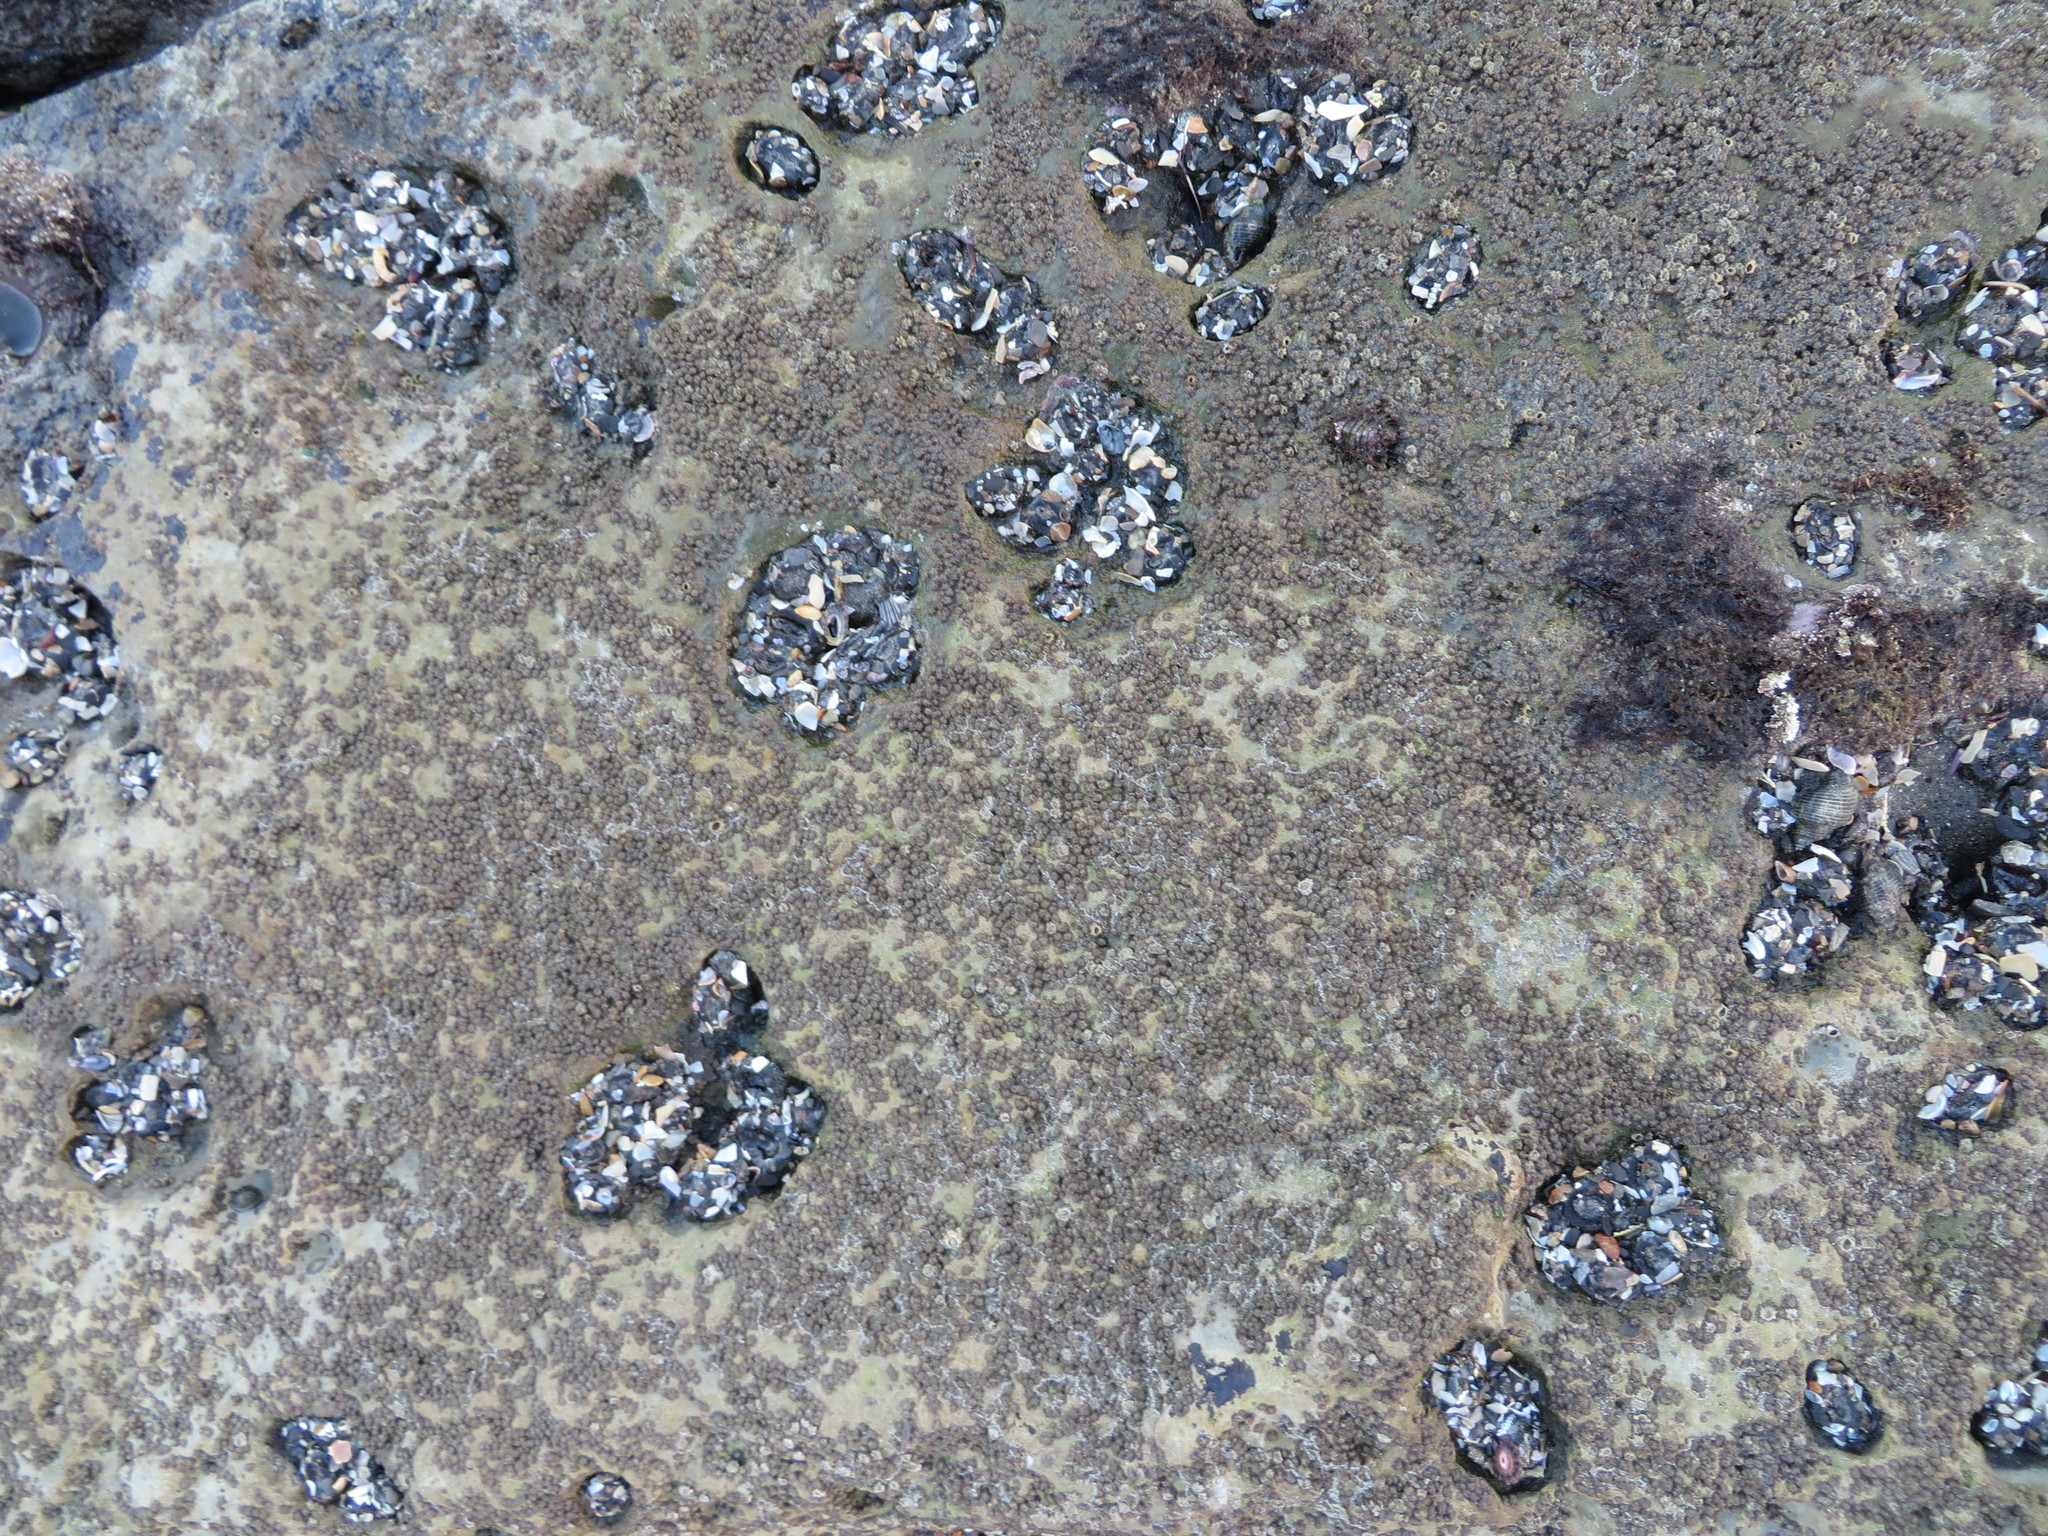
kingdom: Animalia
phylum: Cnidaria
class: Anthozoa
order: Actiniaria
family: Actiniidae
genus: Anthopleura
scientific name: Anthopleura elegantissima
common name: Clonal anemone
